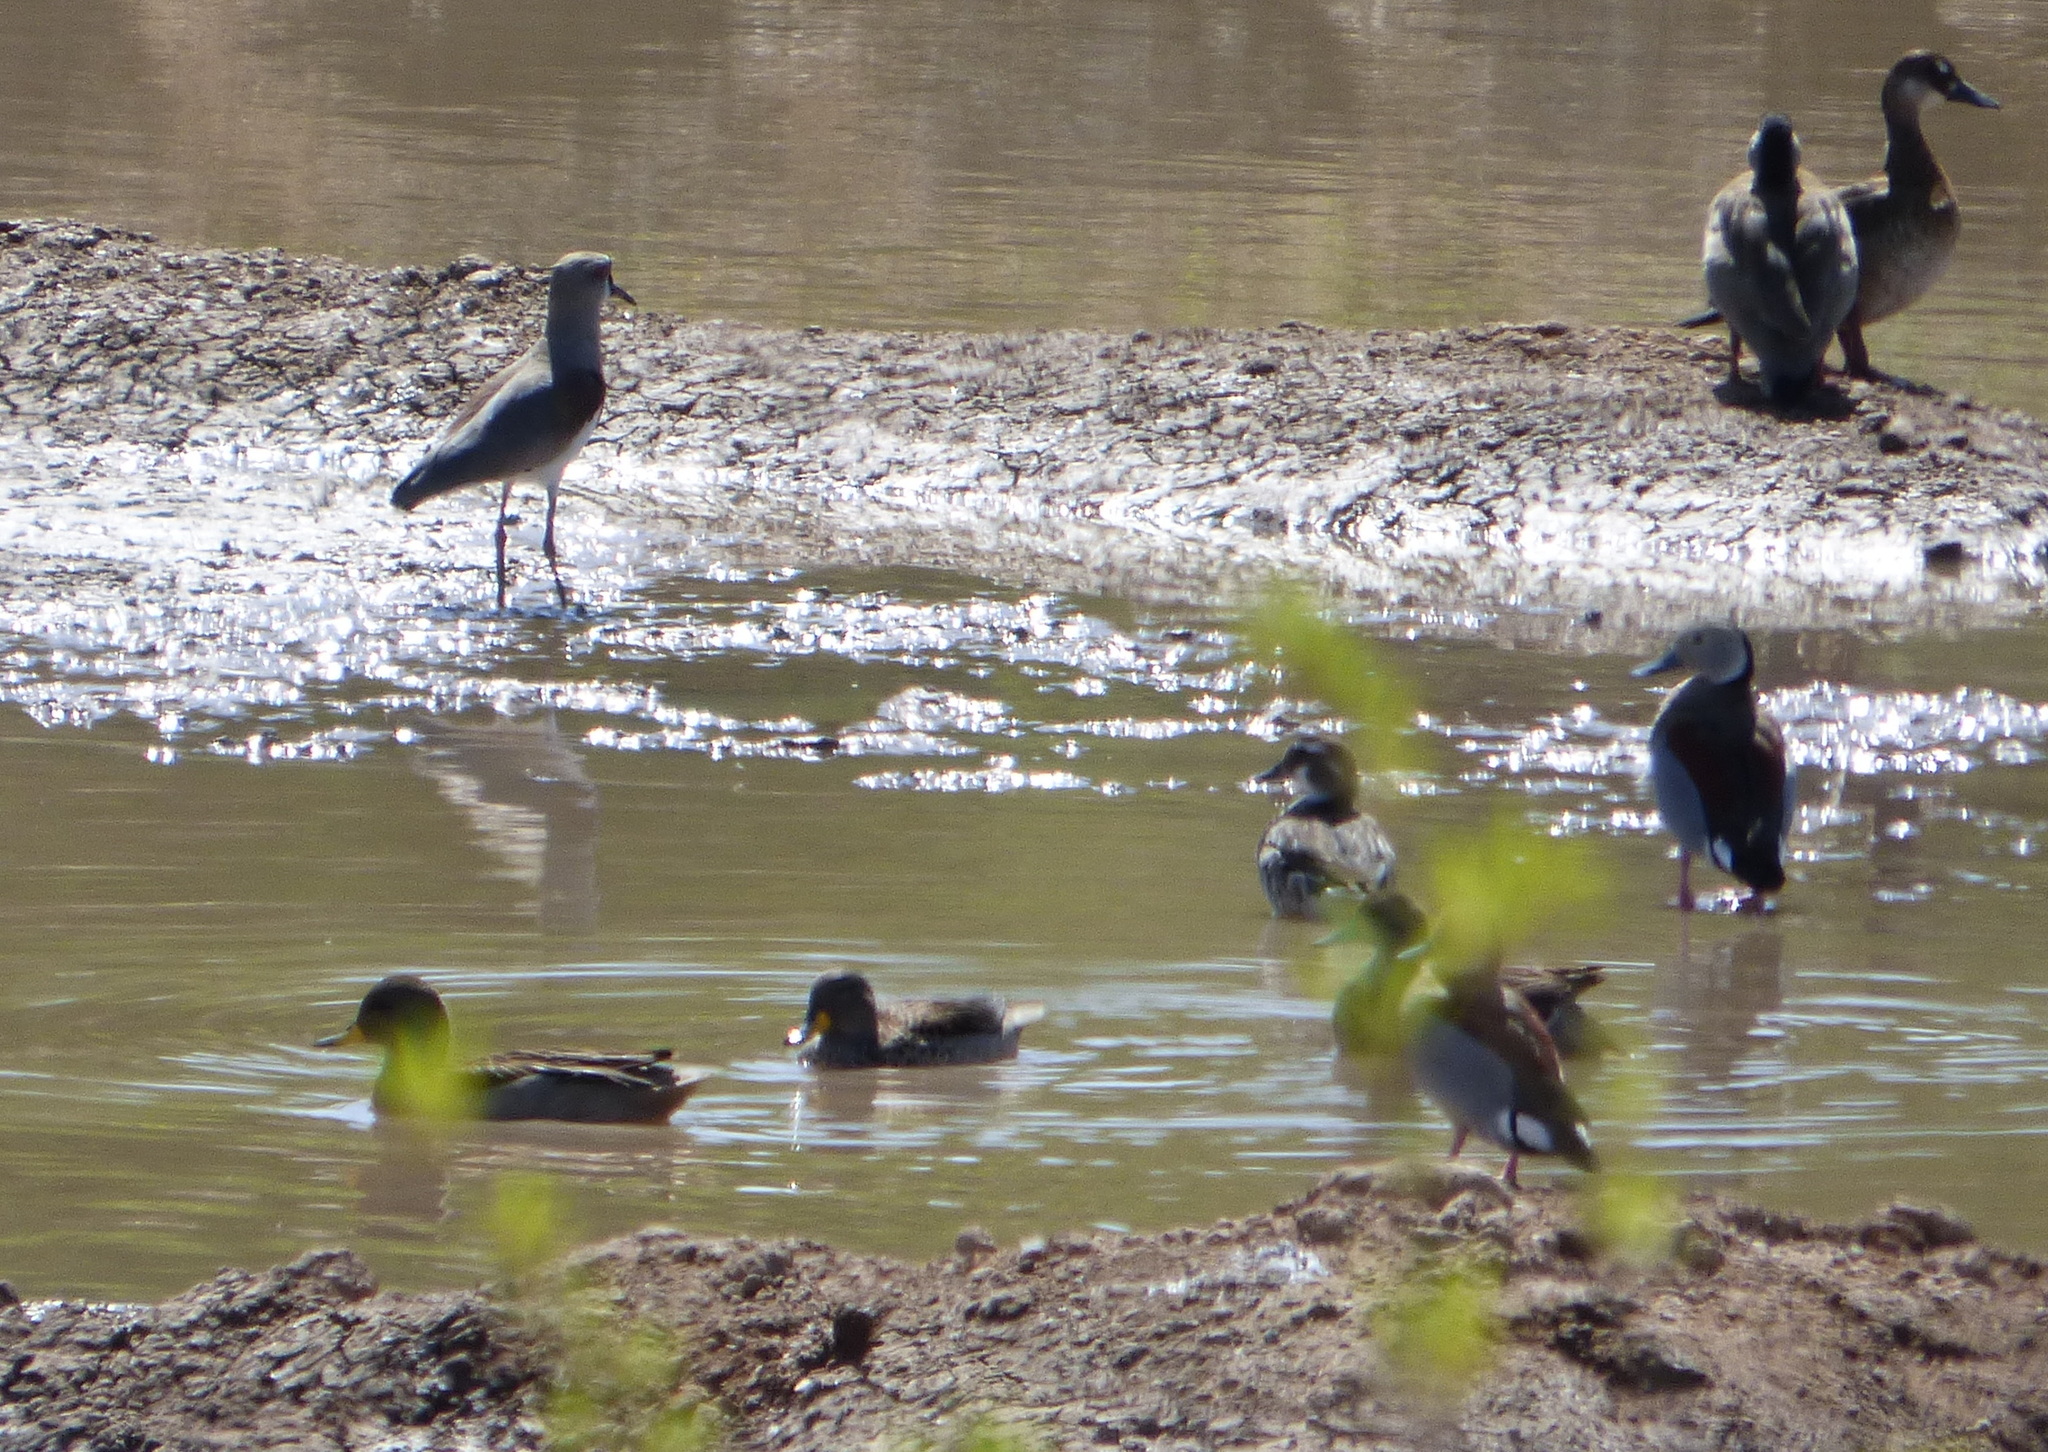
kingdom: Animalia
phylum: Chordata
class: Aves
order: Anseriformes
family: Anatidae
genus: Callonetta
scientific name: Callonetta leucophrys
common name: Ringed teal
